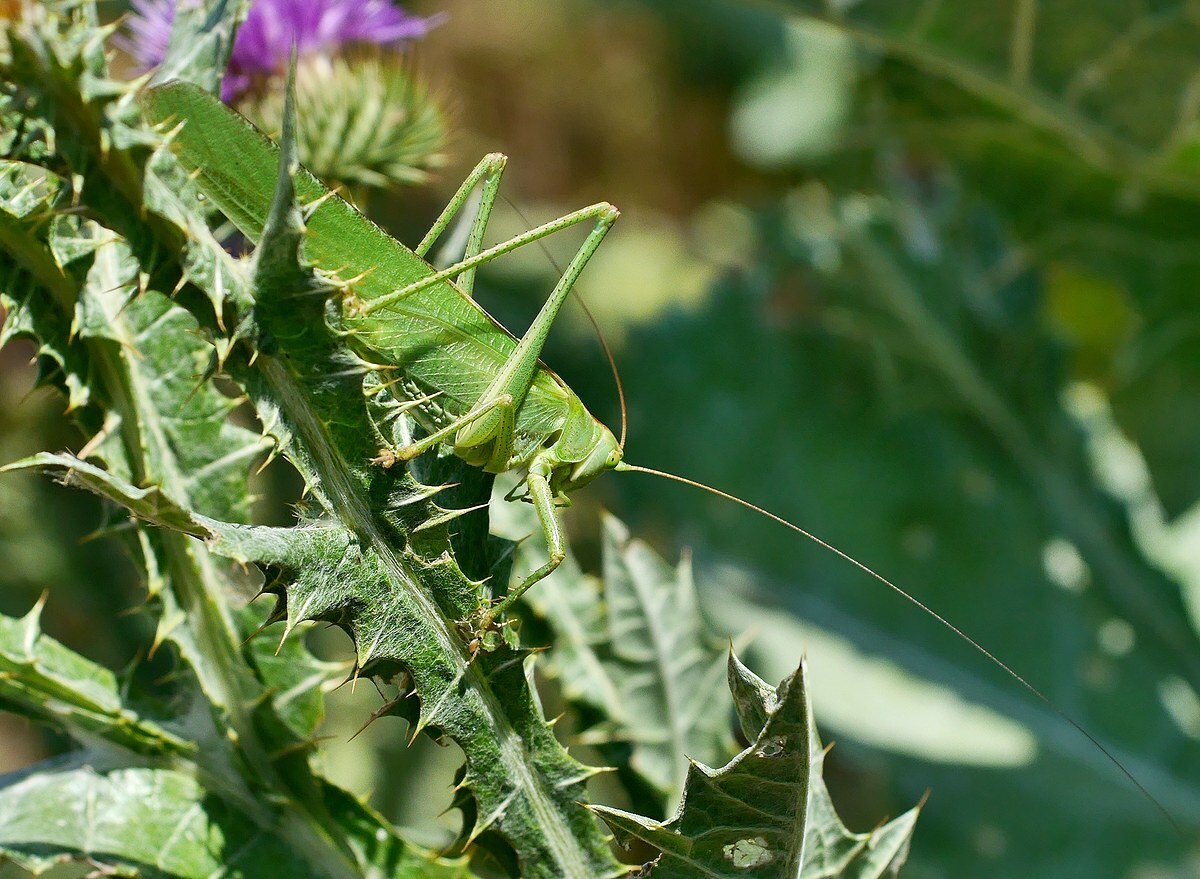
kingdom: Animalia
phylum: Arthropoda
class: Insecta
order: Orthoptera
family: Tettigoniidae
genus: Tettigonia
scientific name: Tettigonia viridissima
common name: Great green bush-cricket
